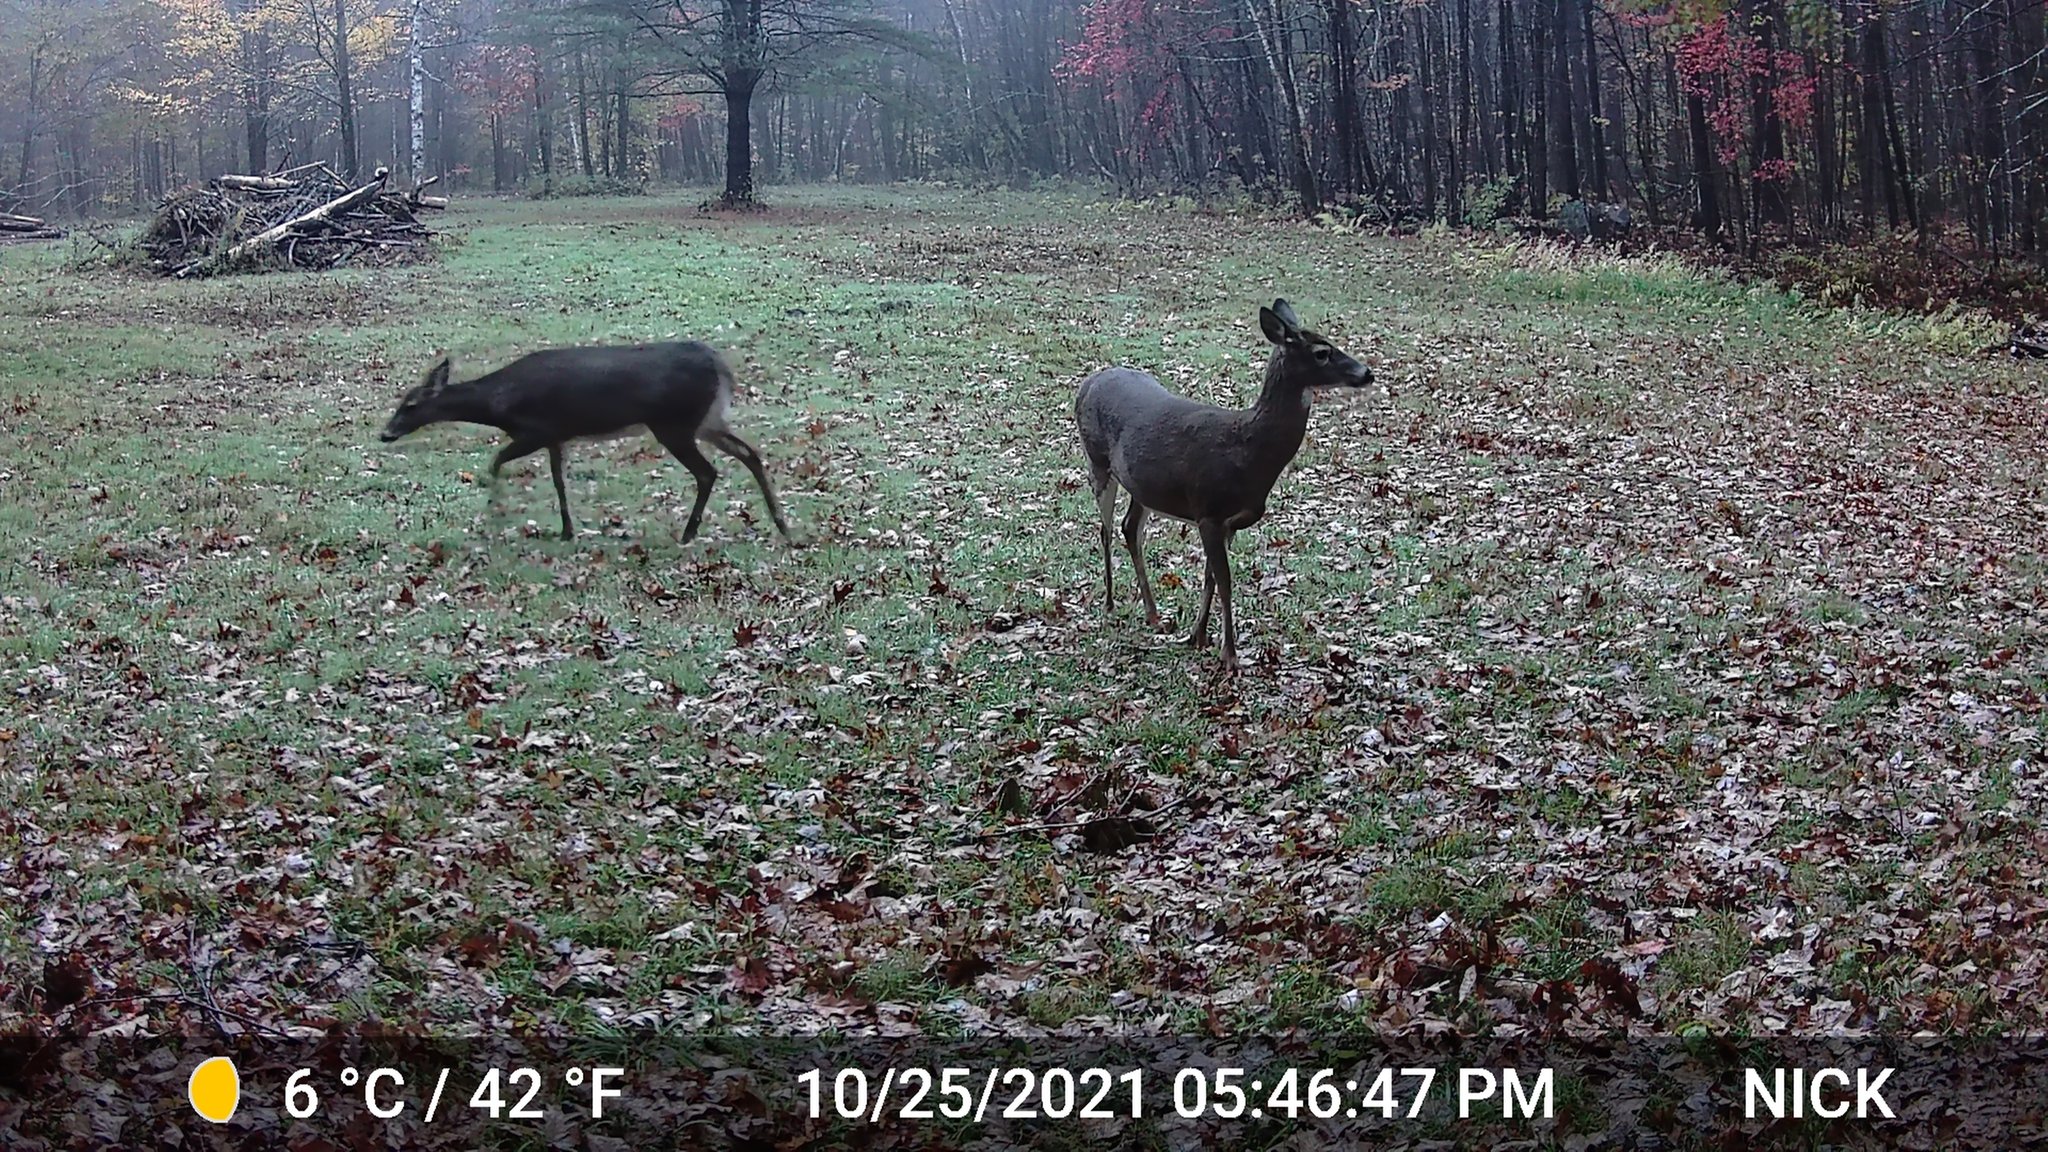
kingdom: Animalia
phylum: Chordata
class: Mammalia
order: Artiodactyla
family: Cervidae
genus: Odocoileus
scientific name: Odocoileus virginianus
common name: White-tailed deer
